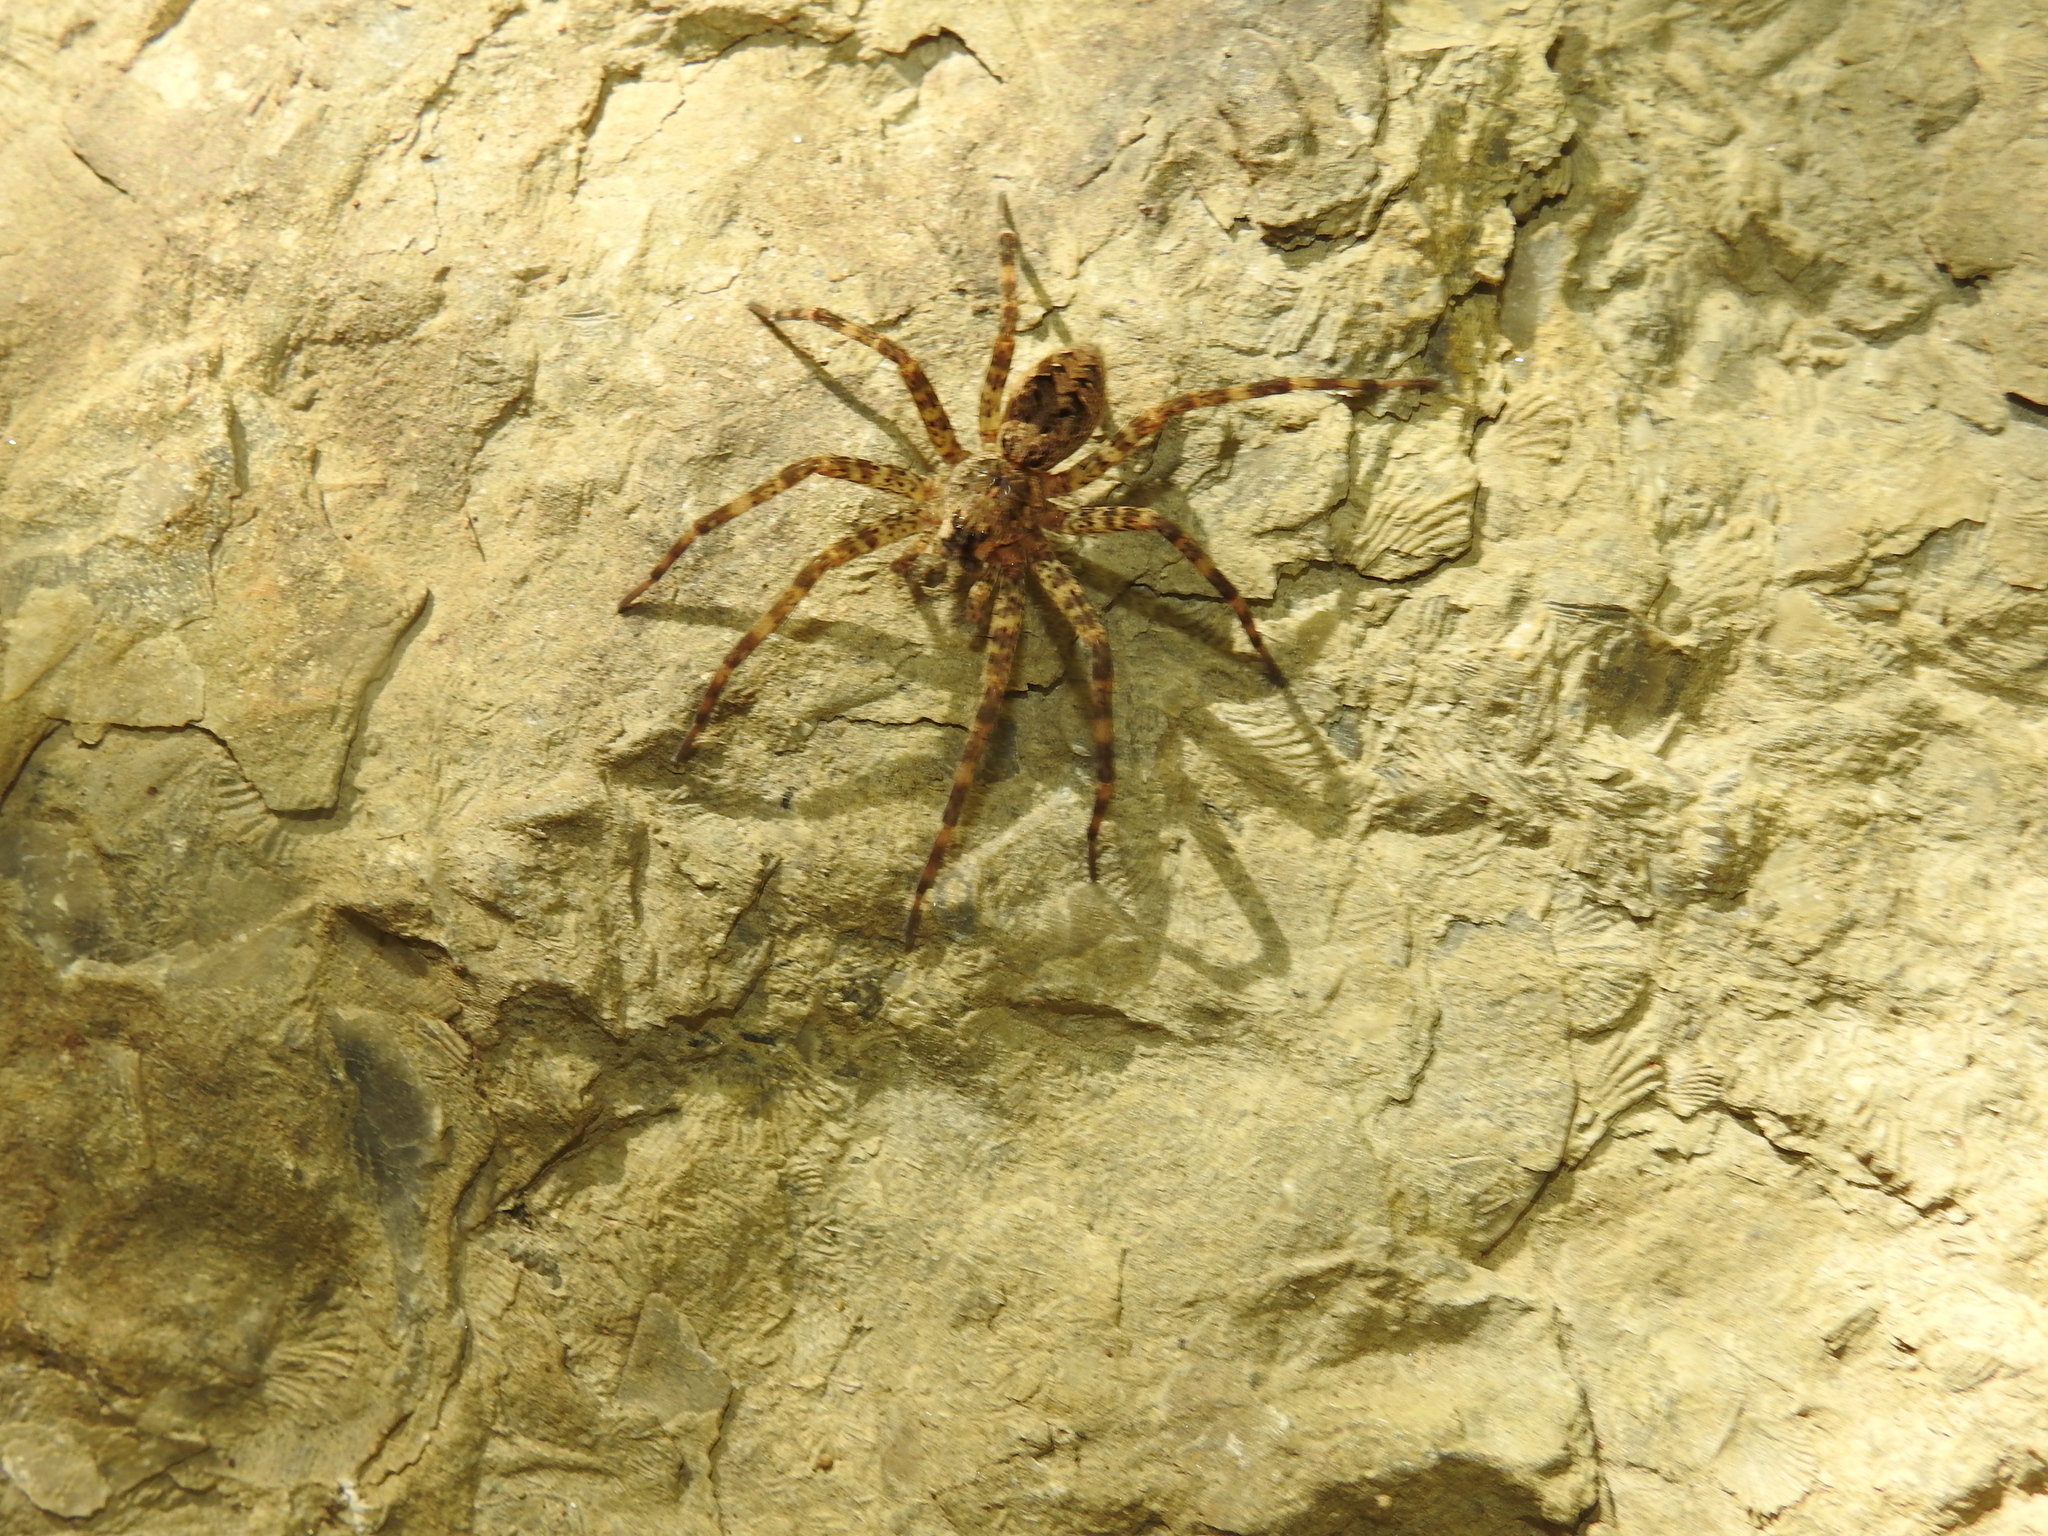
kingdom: Animalia
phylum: Arthropoda
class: Arachnida
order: Araneae
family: Pisauridae
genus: Dolomedes
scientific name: Dolomedes tenebrosus
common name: Dark fishing spider
